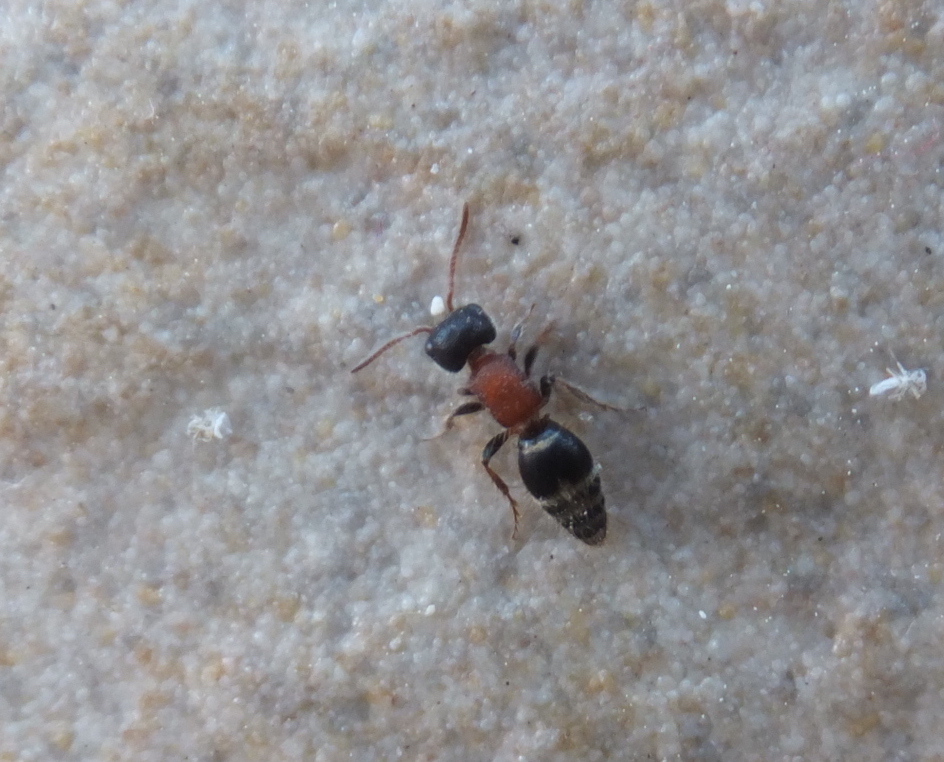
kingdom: Animalia
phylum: Arthropoda
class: Insecta
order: Hymenoptera
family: Mutillidae
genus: Myrmilla
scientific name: Myrmilla calva
